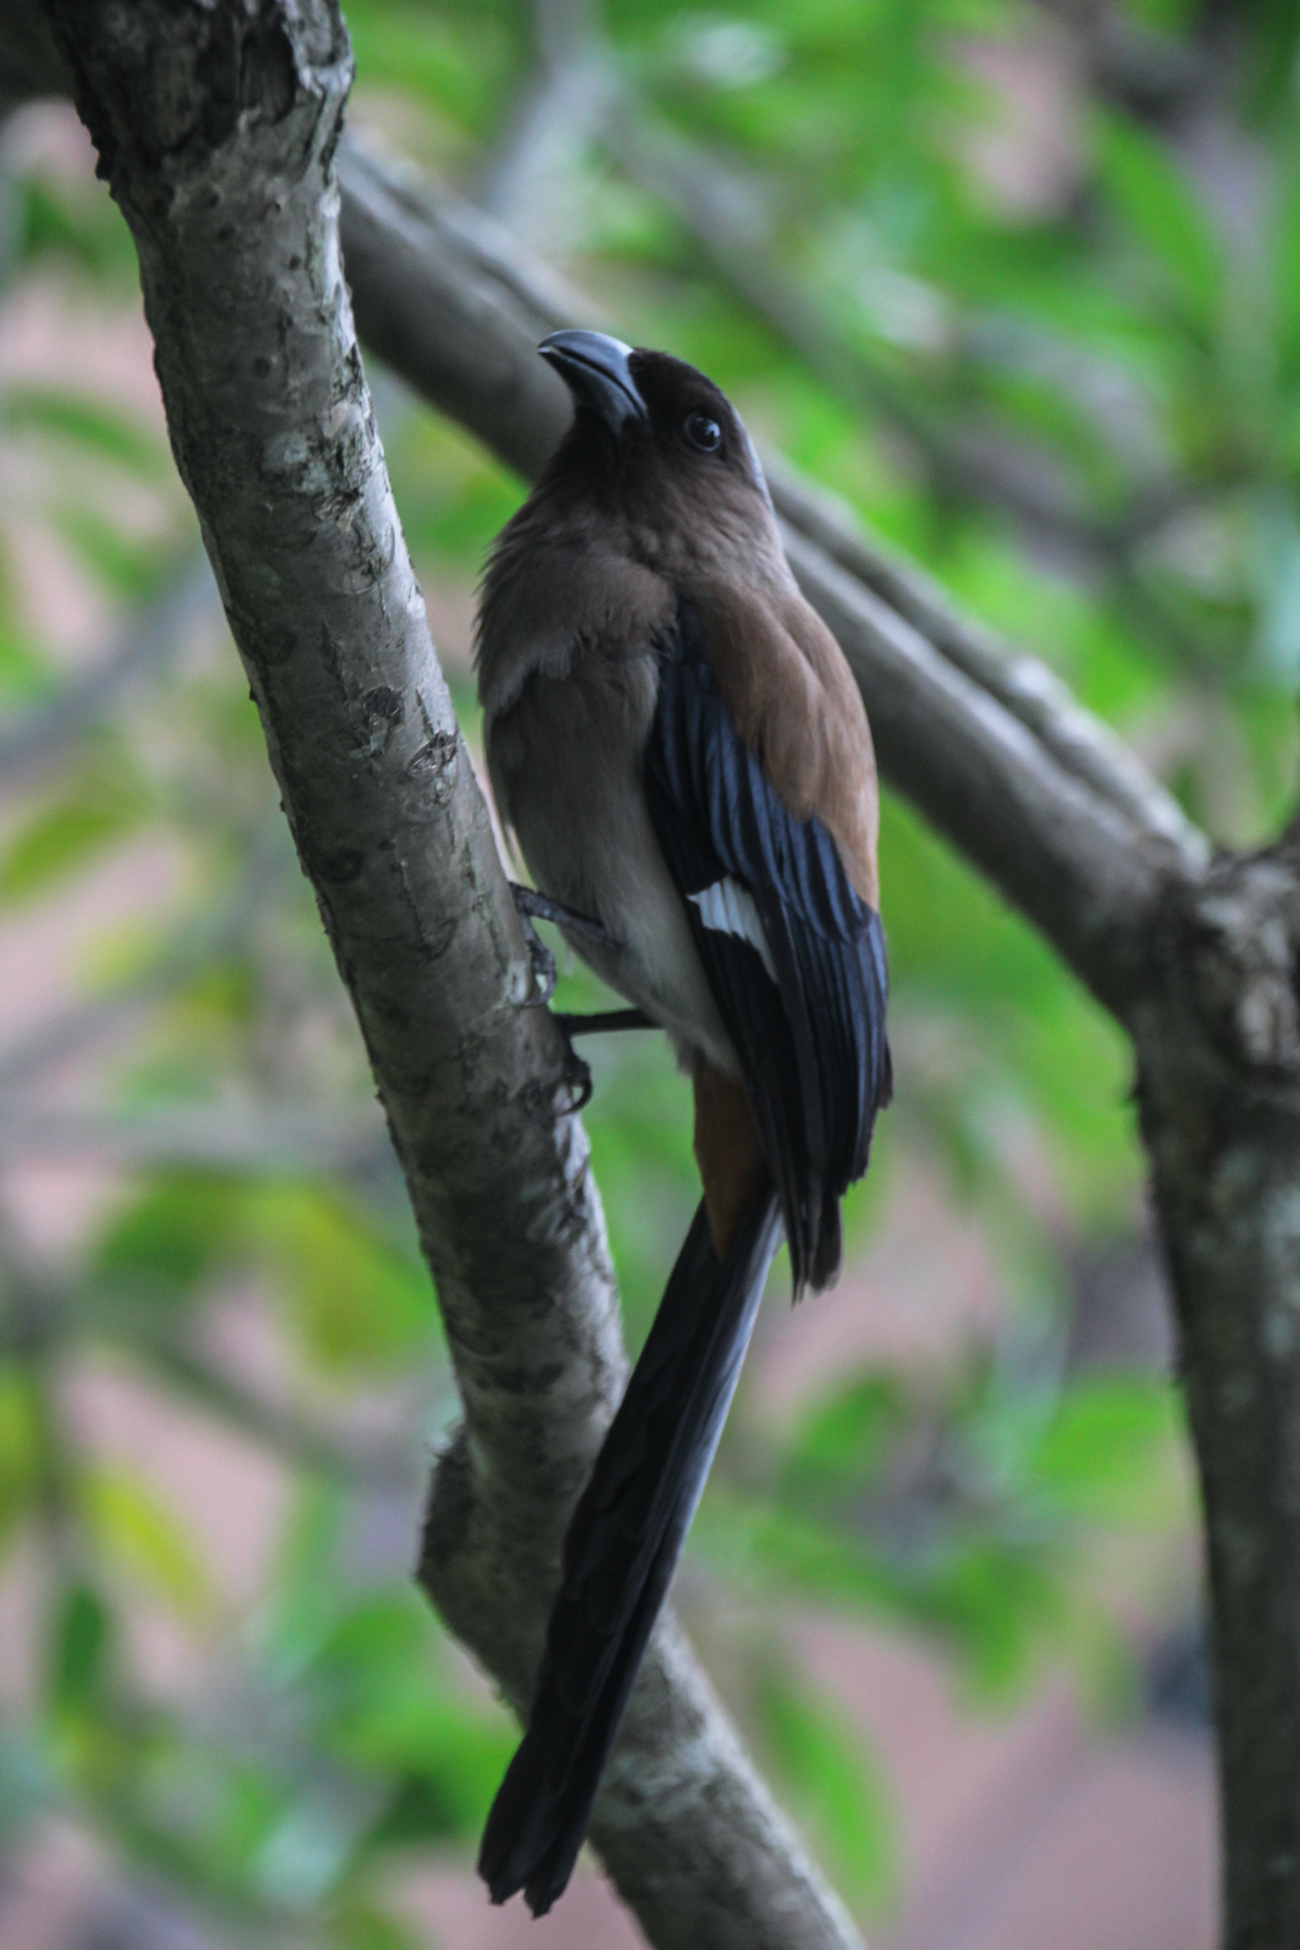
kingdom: Animalia
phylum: Chordata
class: Aves
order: Passeriformes
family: Corvidae
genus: Dendrocitta
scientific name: Dendrocitta formosae
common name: Grey treepie
